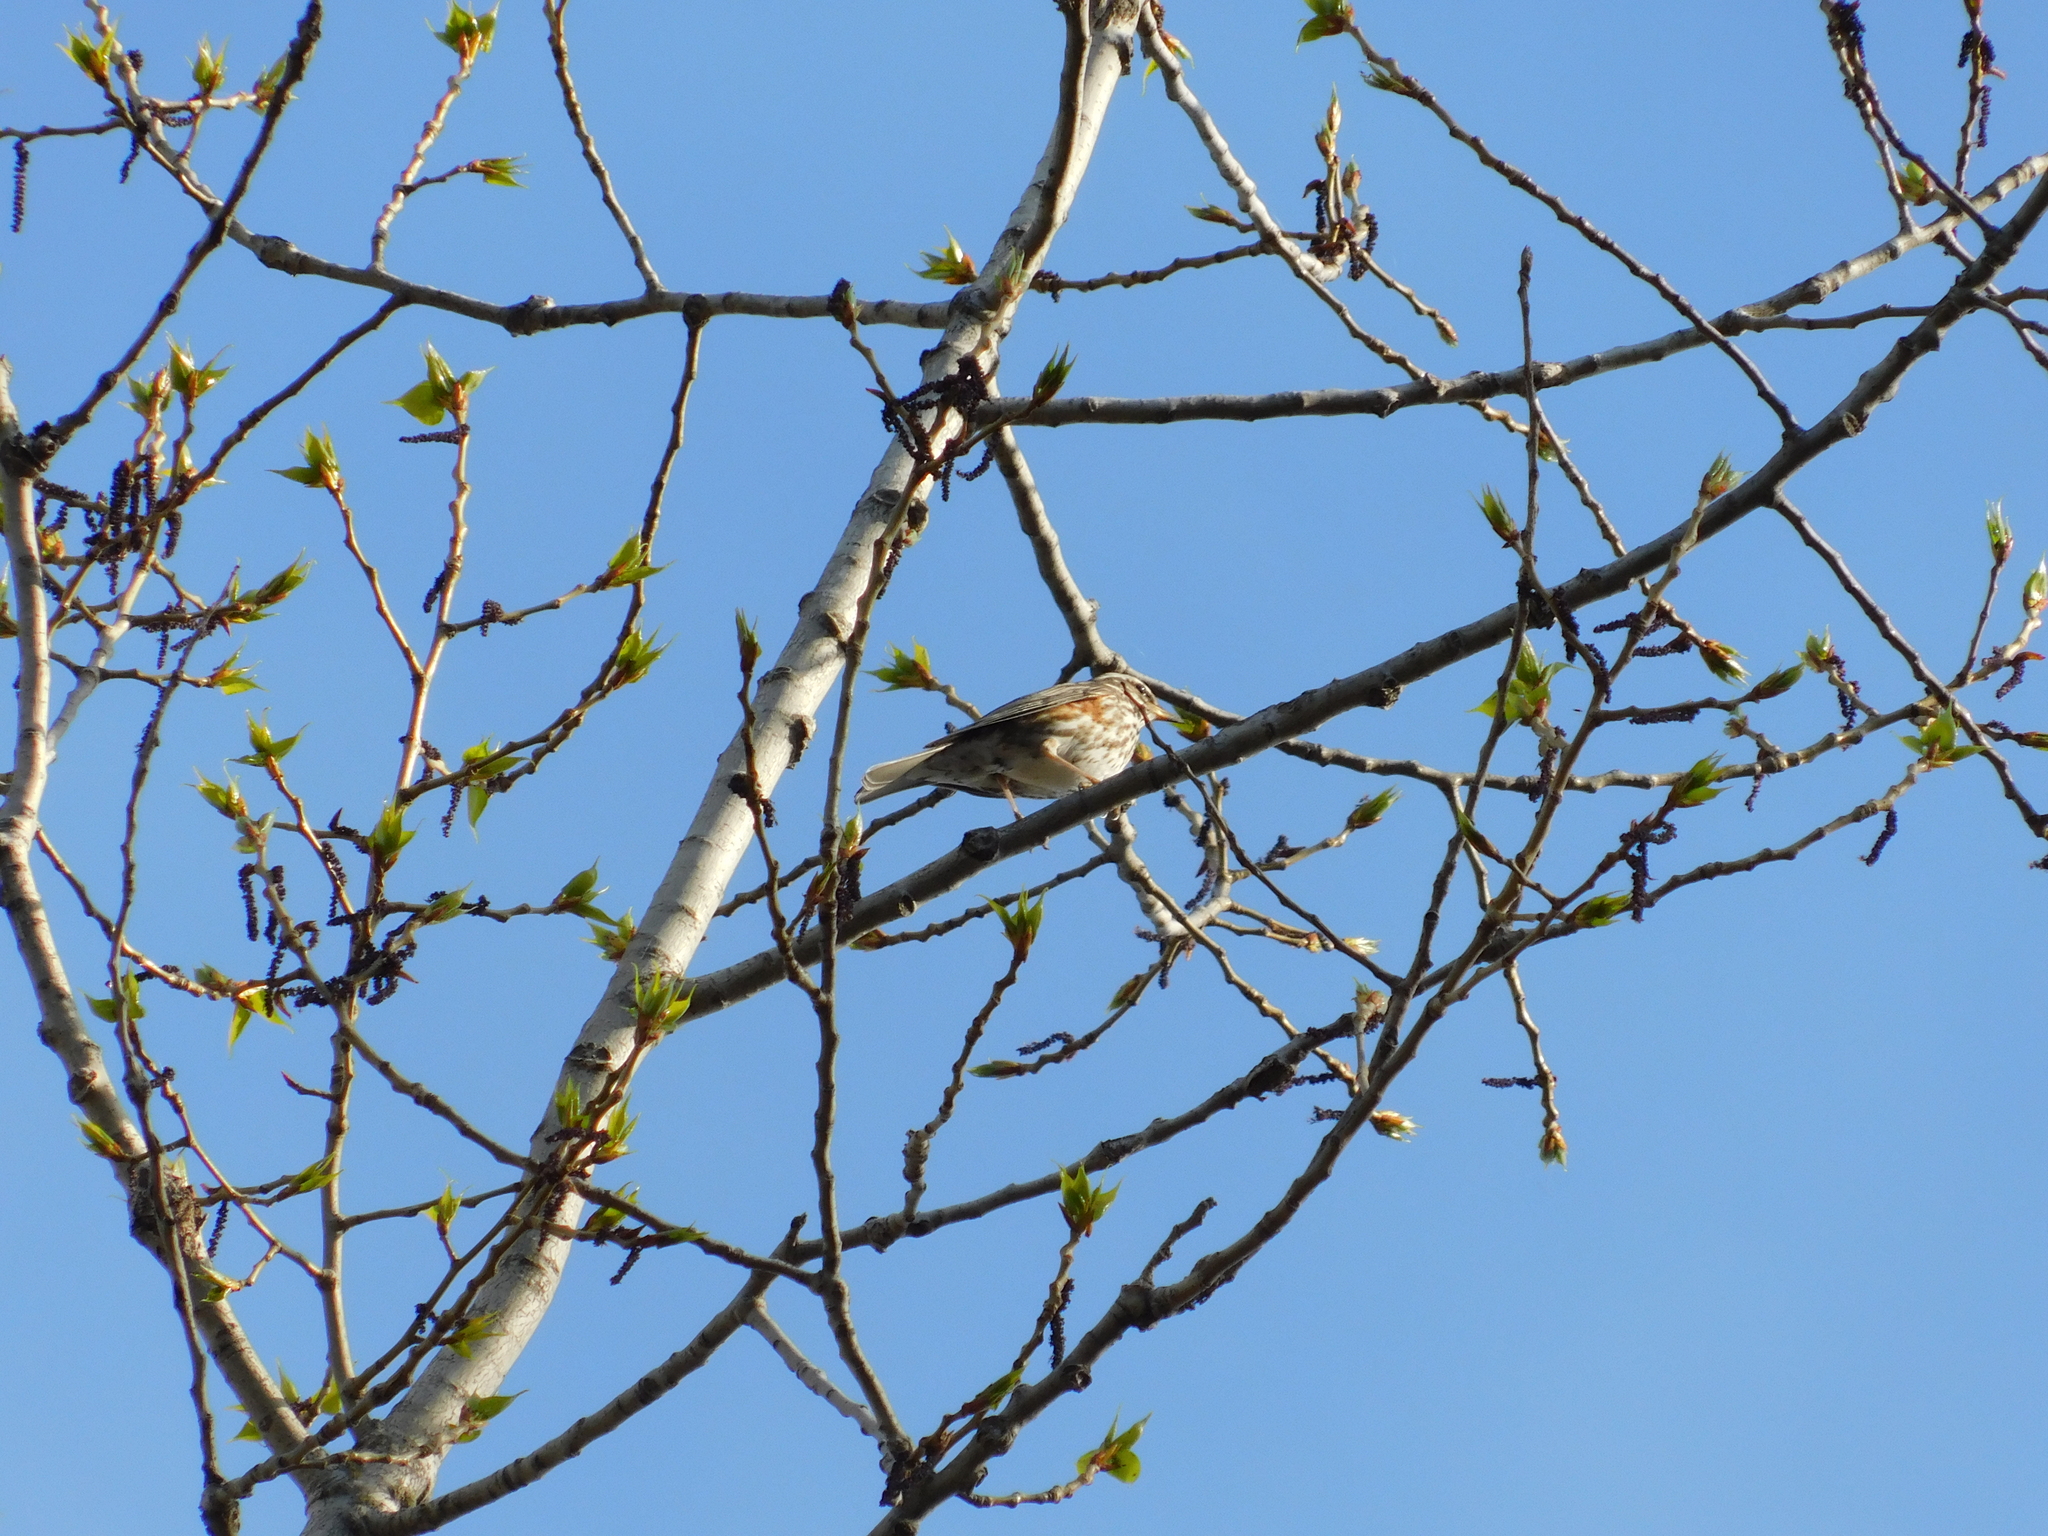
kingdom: Animalia
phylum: Chordata
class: Aves
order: Passeriformes
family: Turdidae
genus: Turdus
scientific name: Turdus iliacus
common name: Redwing
